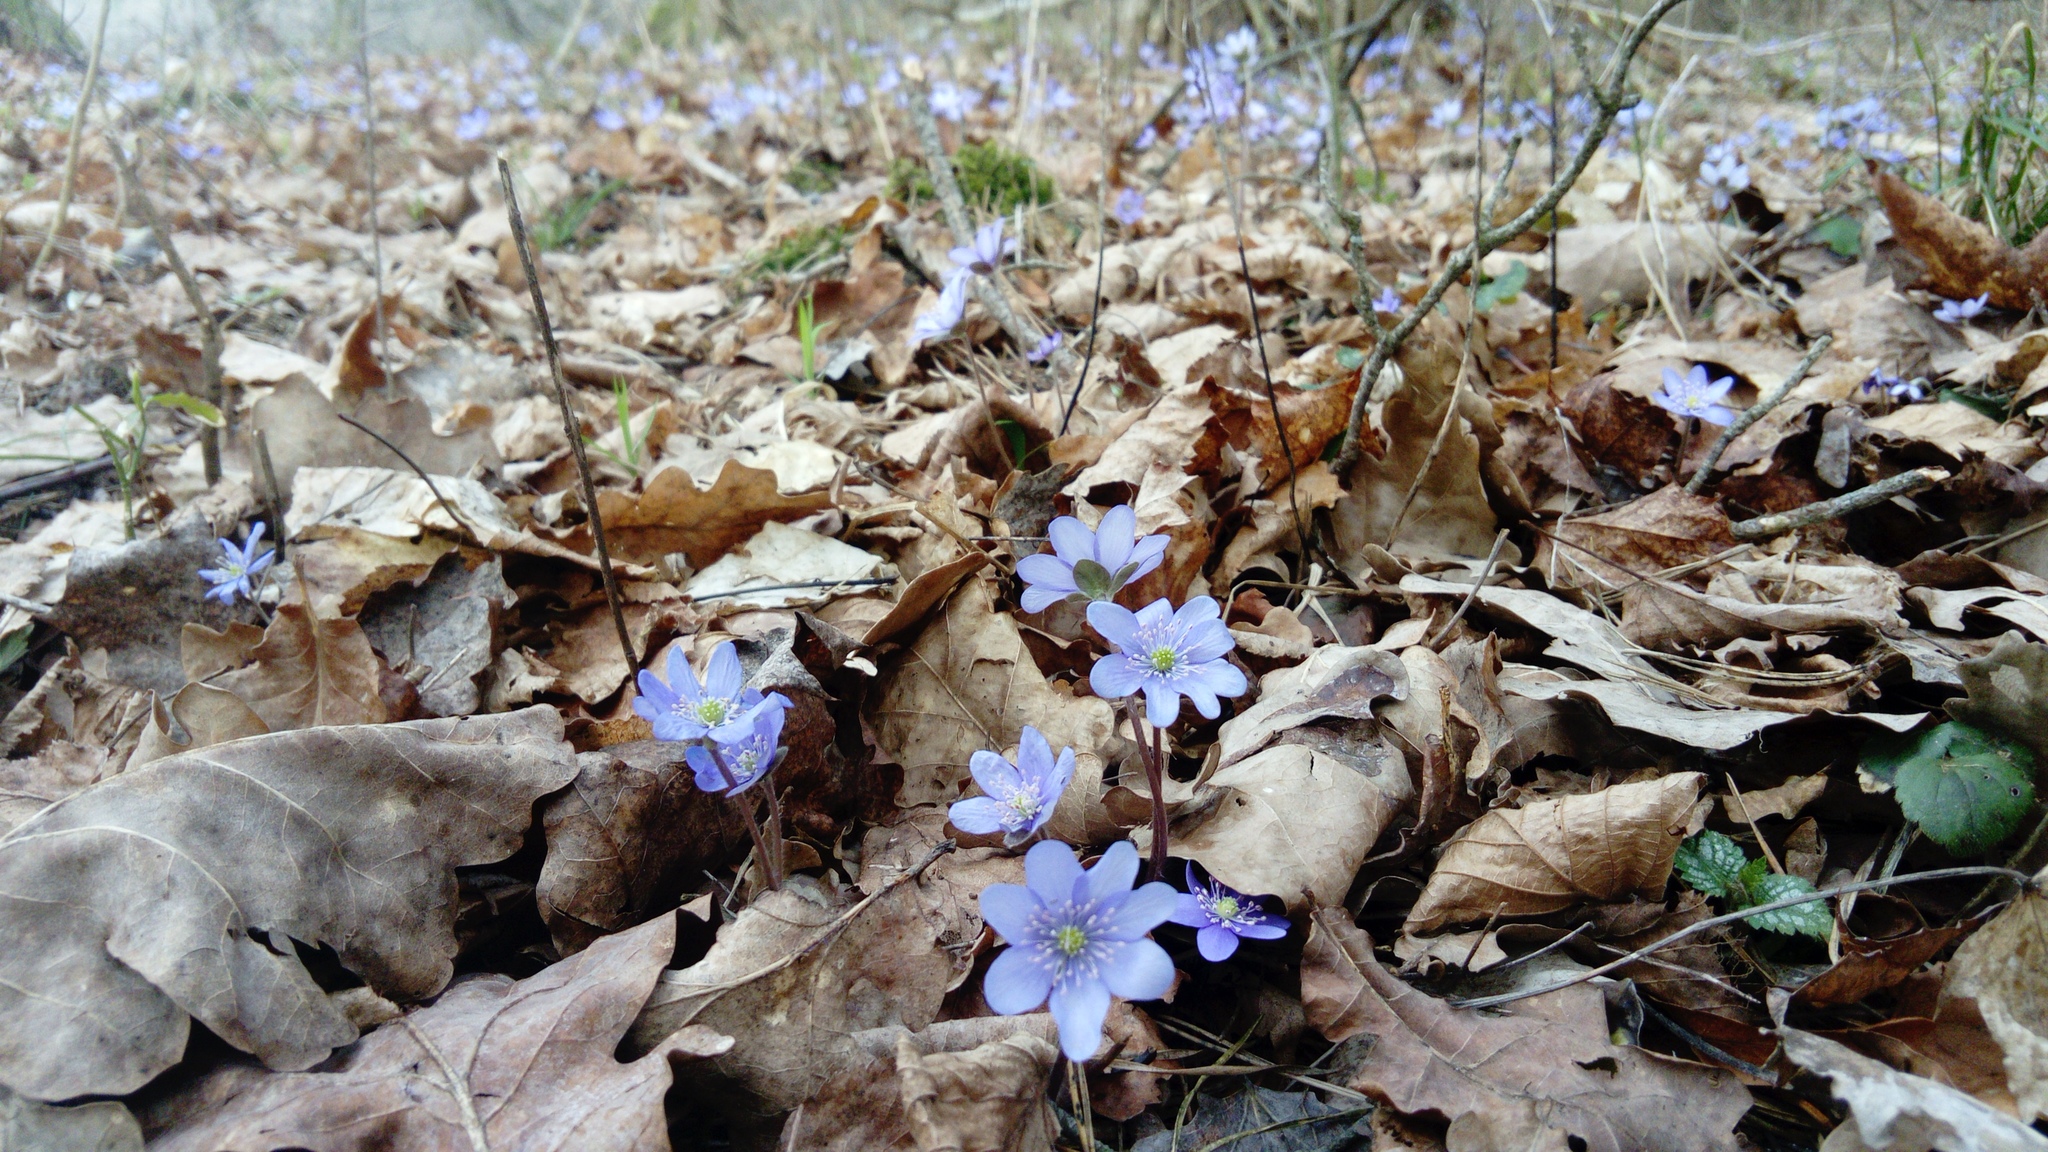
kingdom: Plantae
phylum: Tracheophyta
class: Magnoliopsida
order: Ranunculales
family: Ranunculaceae
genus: Hepatica
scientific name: Hepatica nobilis
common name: Liverleaf
